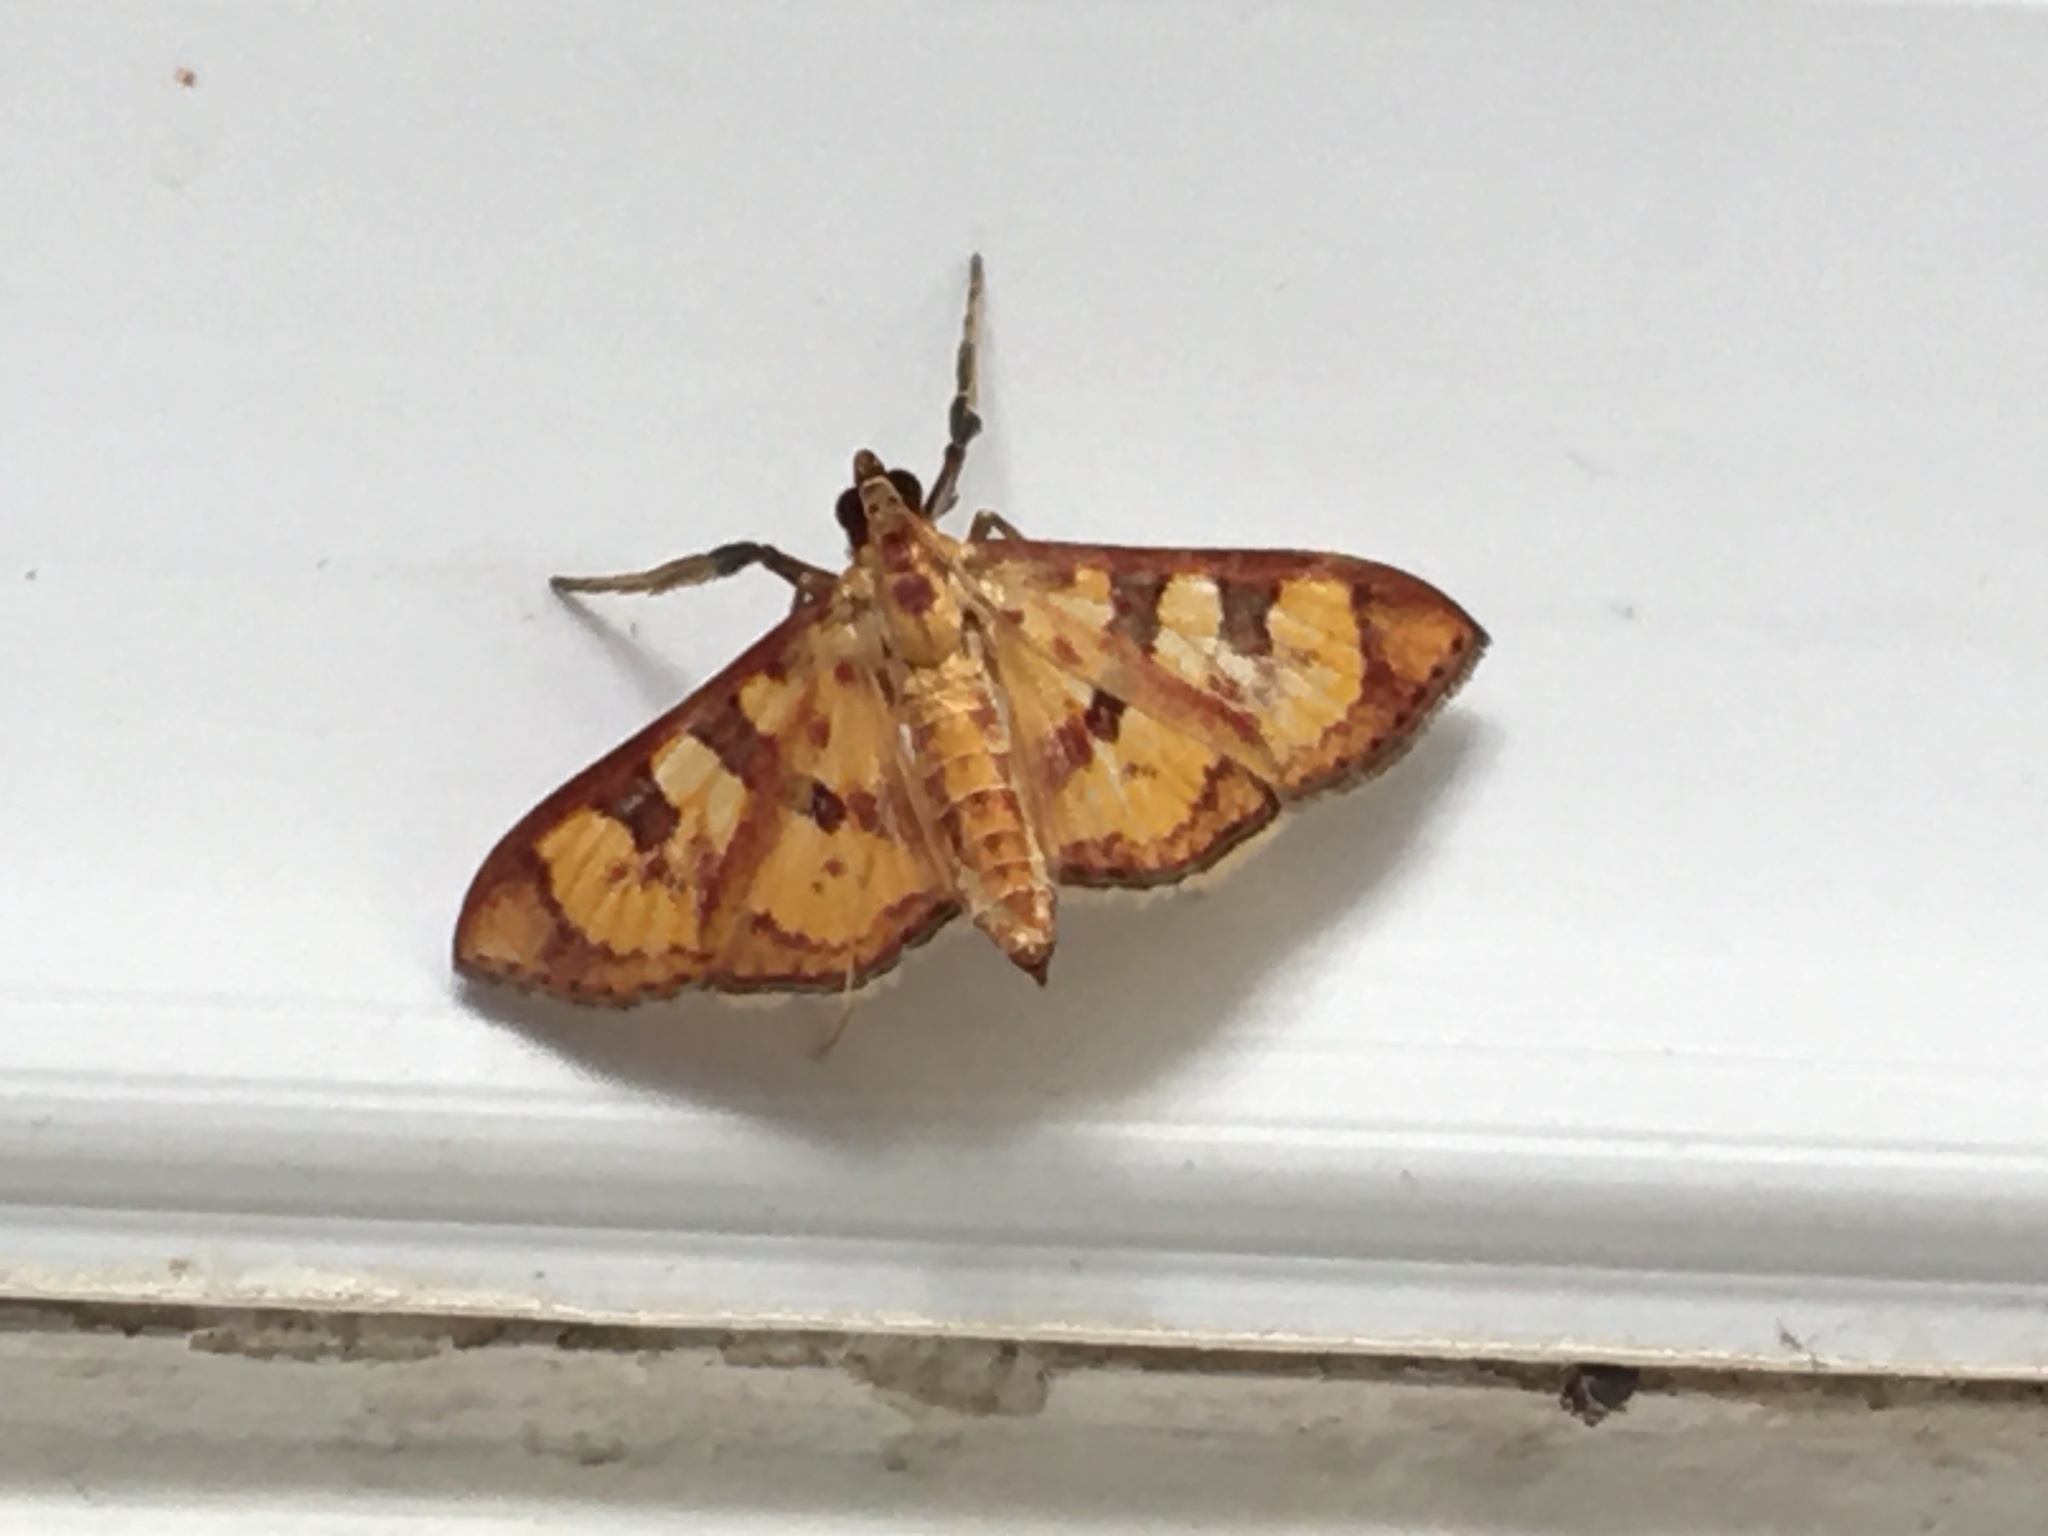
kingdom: Animalia
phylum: Arthropoda
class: Insecta
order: Lepidoptera
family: Crambidae
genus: Trithyris
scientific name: Trithyris
